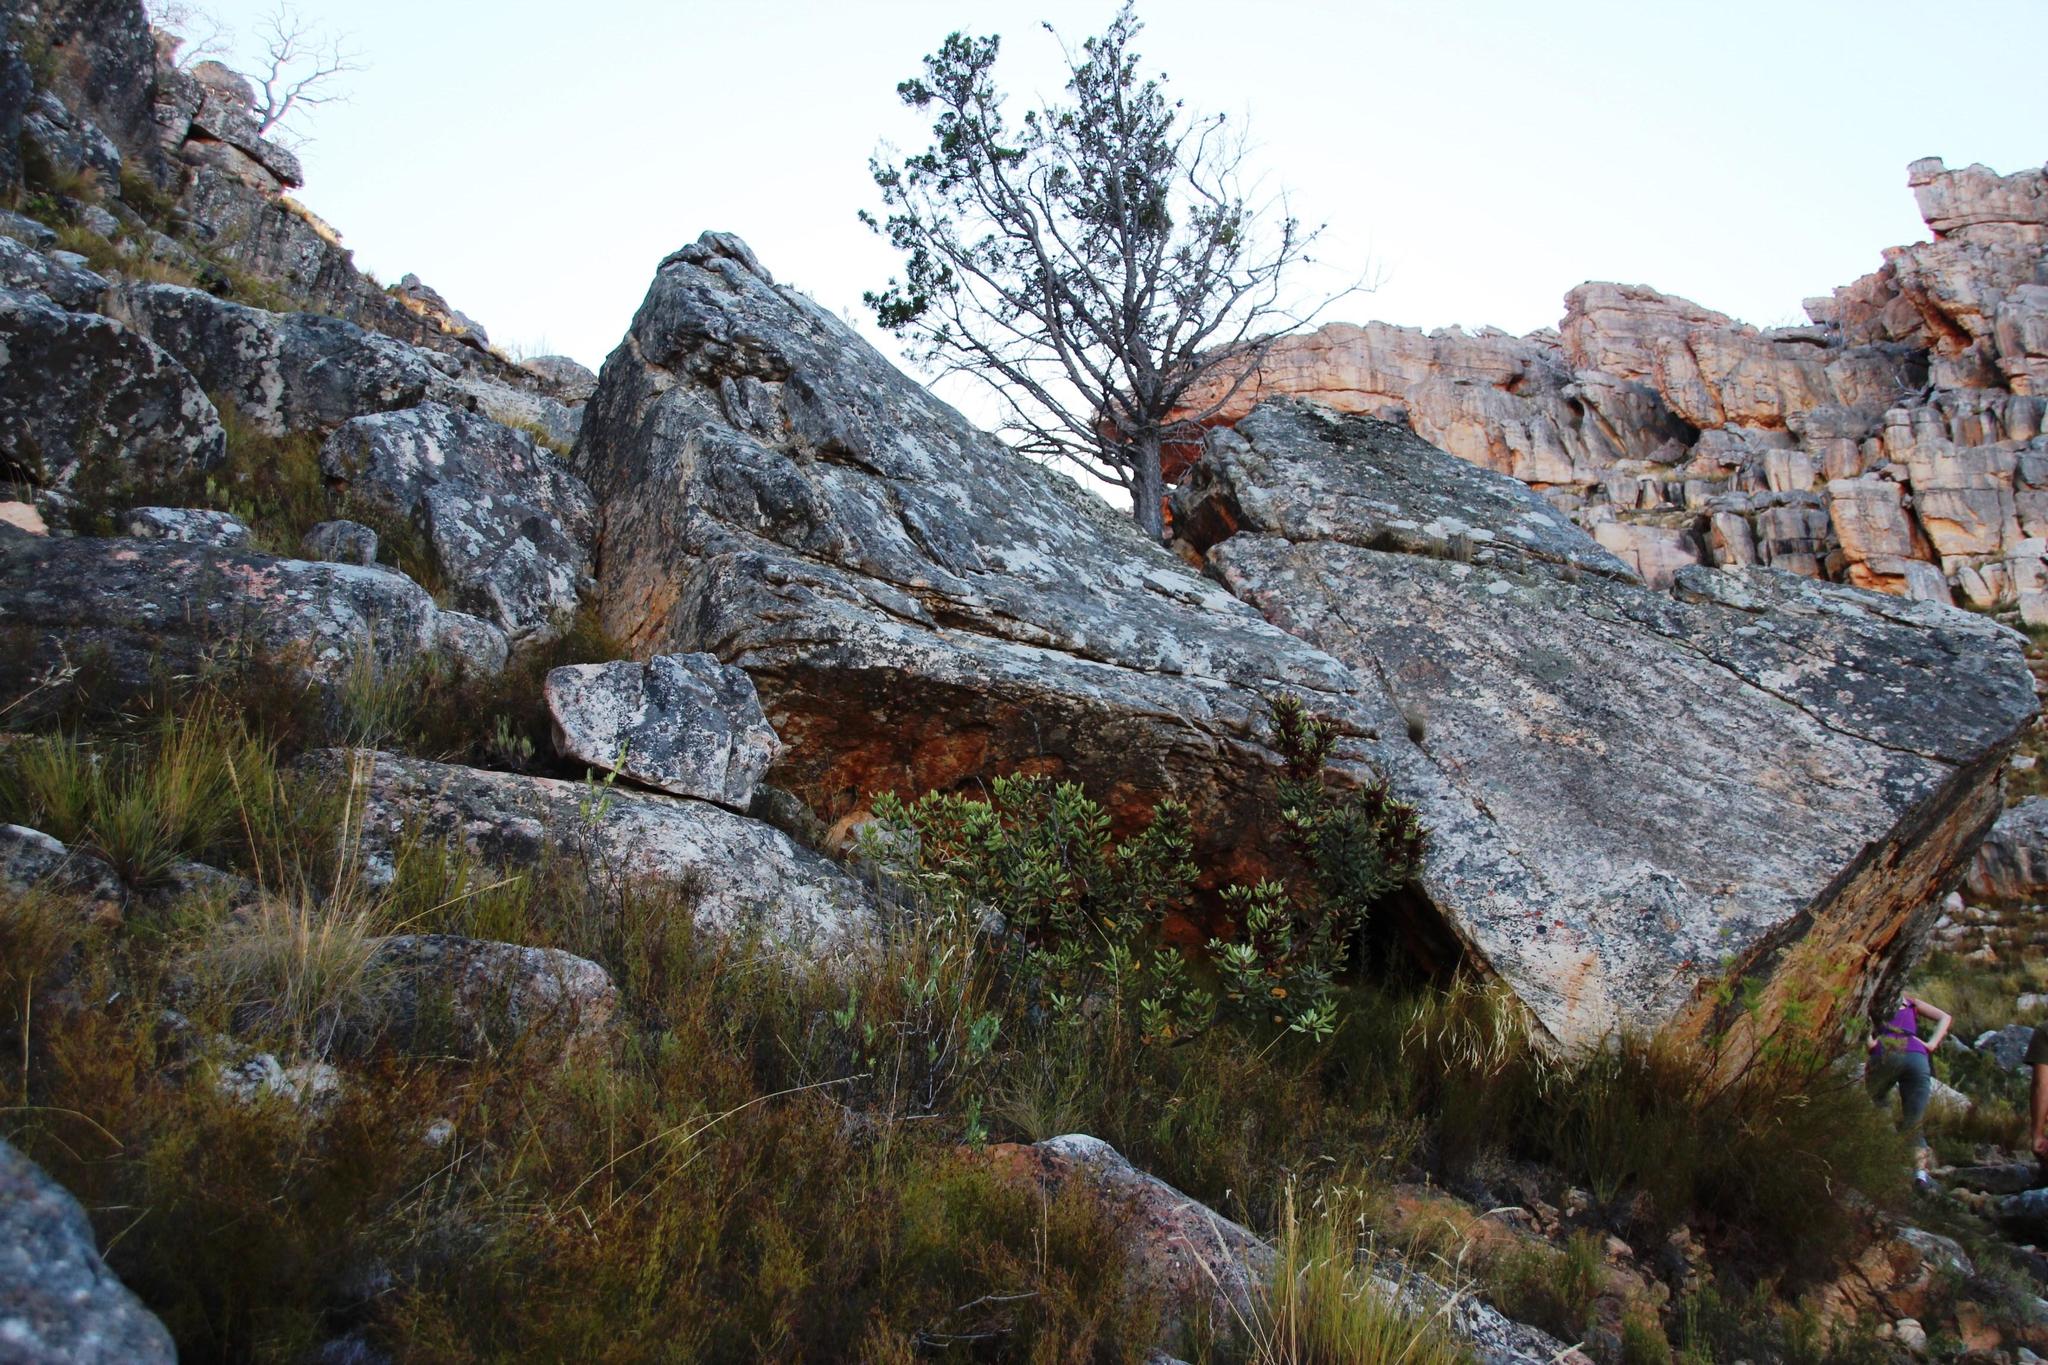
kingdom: Plantae
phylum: Tracheophyta
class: Magnoliopsida
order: Sapindales
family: Anacardiaceae
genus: Searsia
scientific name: Searsia scytophylla
